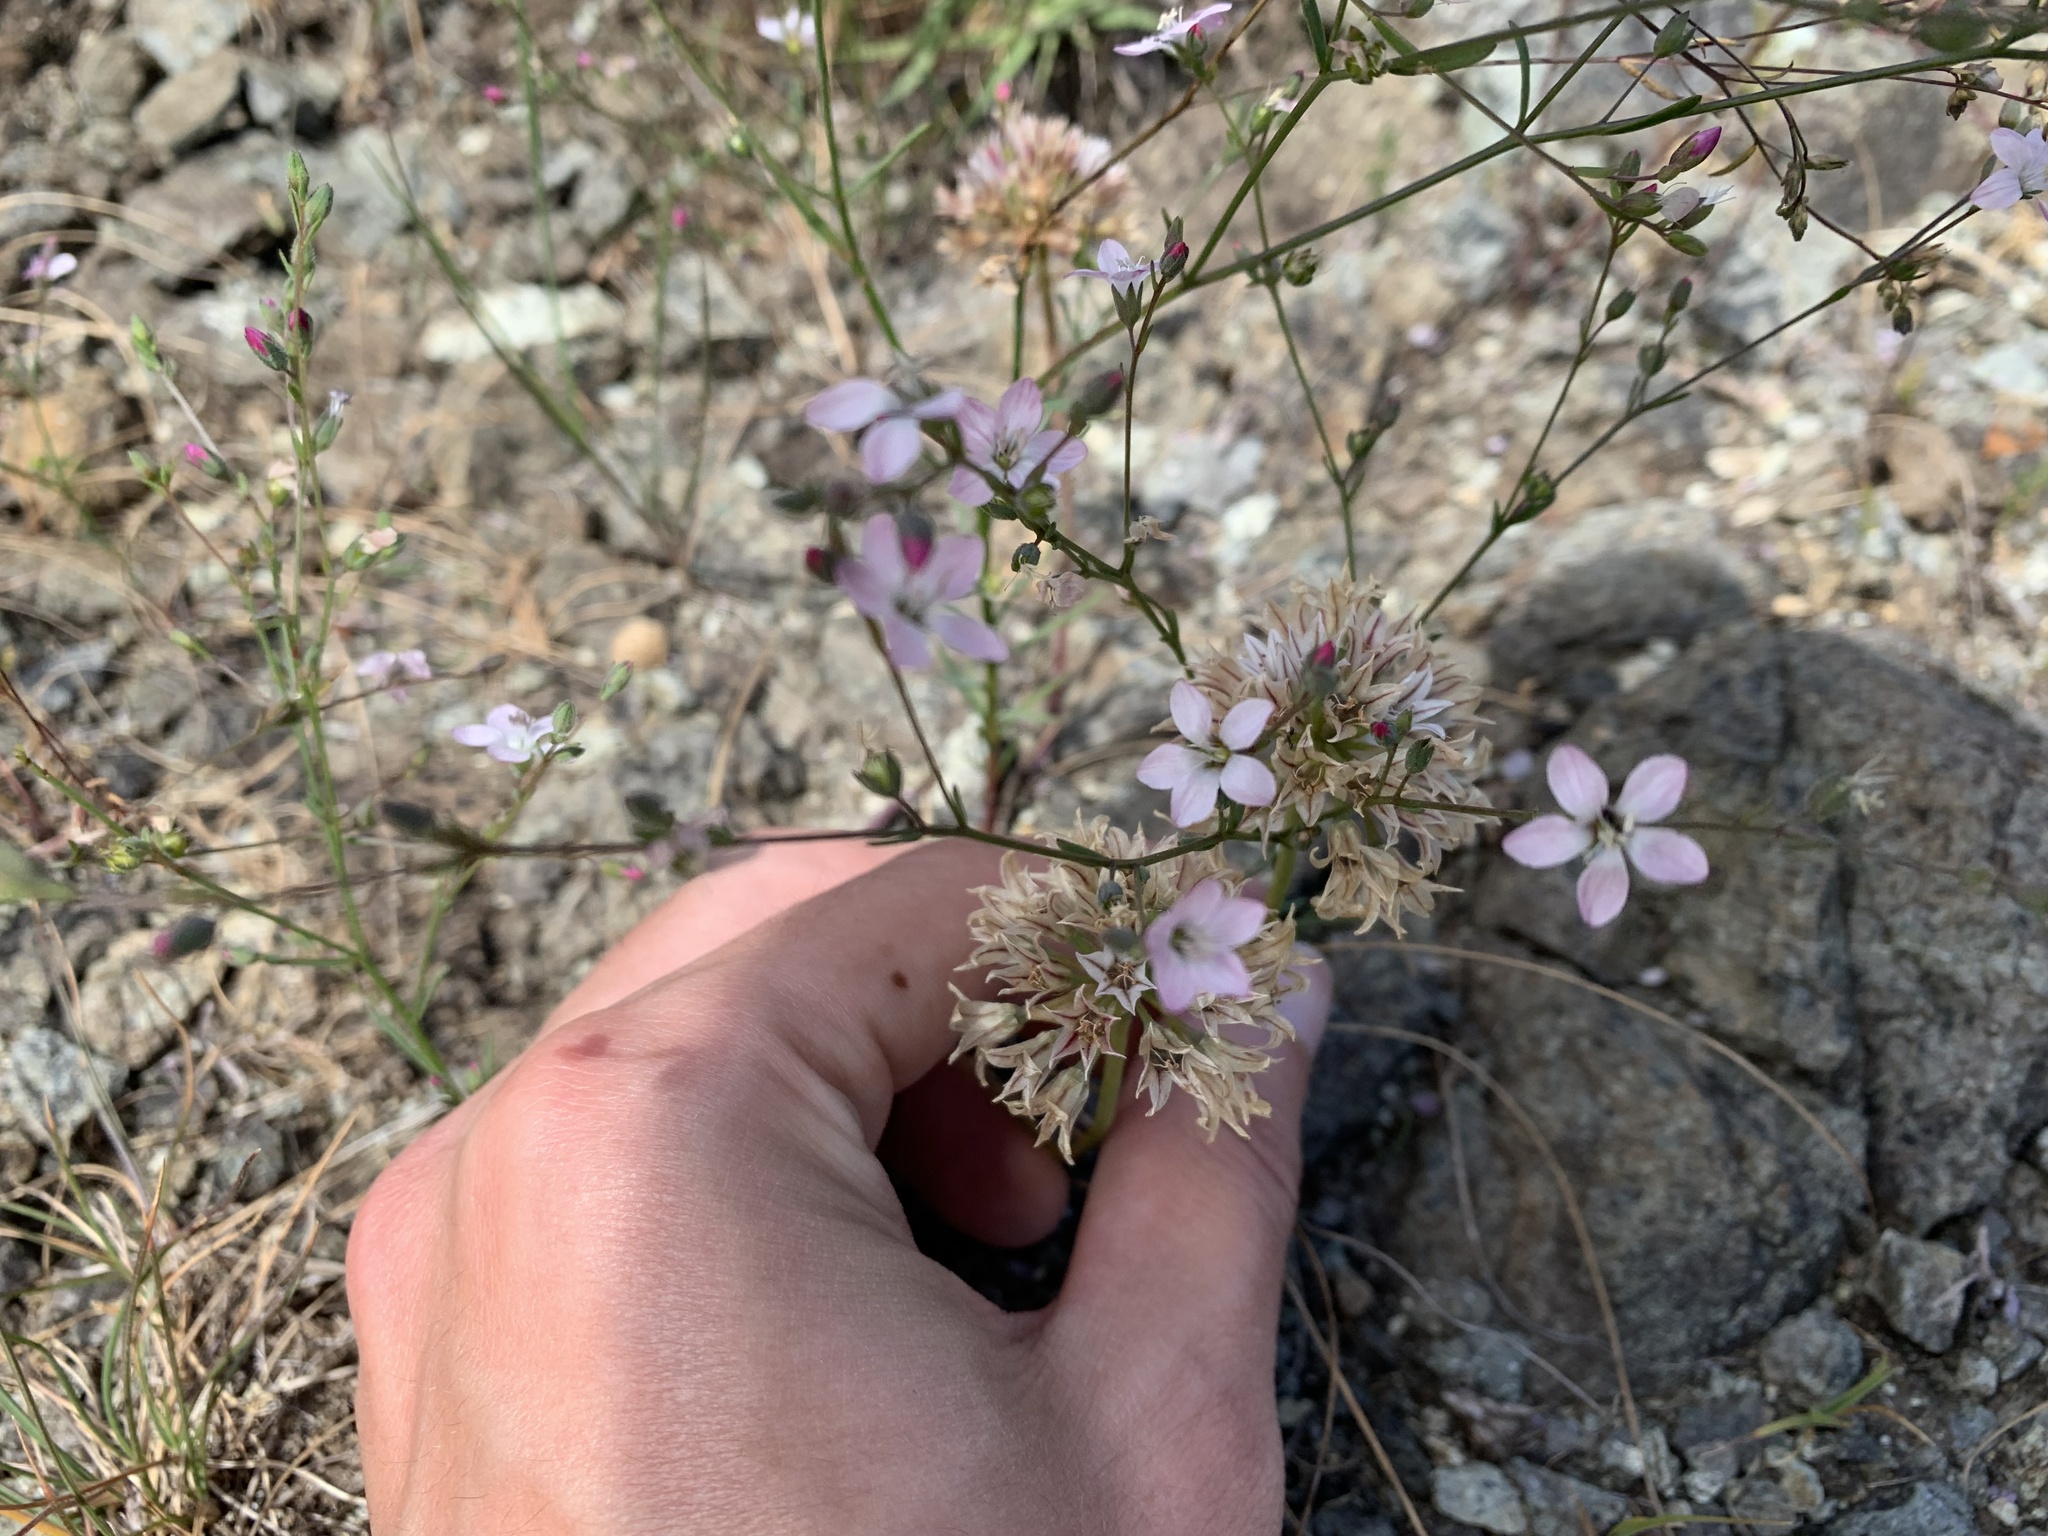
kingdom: Plantae
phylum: Tracheophyta
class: Magnoliopsida
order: Malpighiales
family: Linaceae
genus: Hesperolinon
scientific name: Hesperolinon congestum
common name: Marin dwarf-flax
